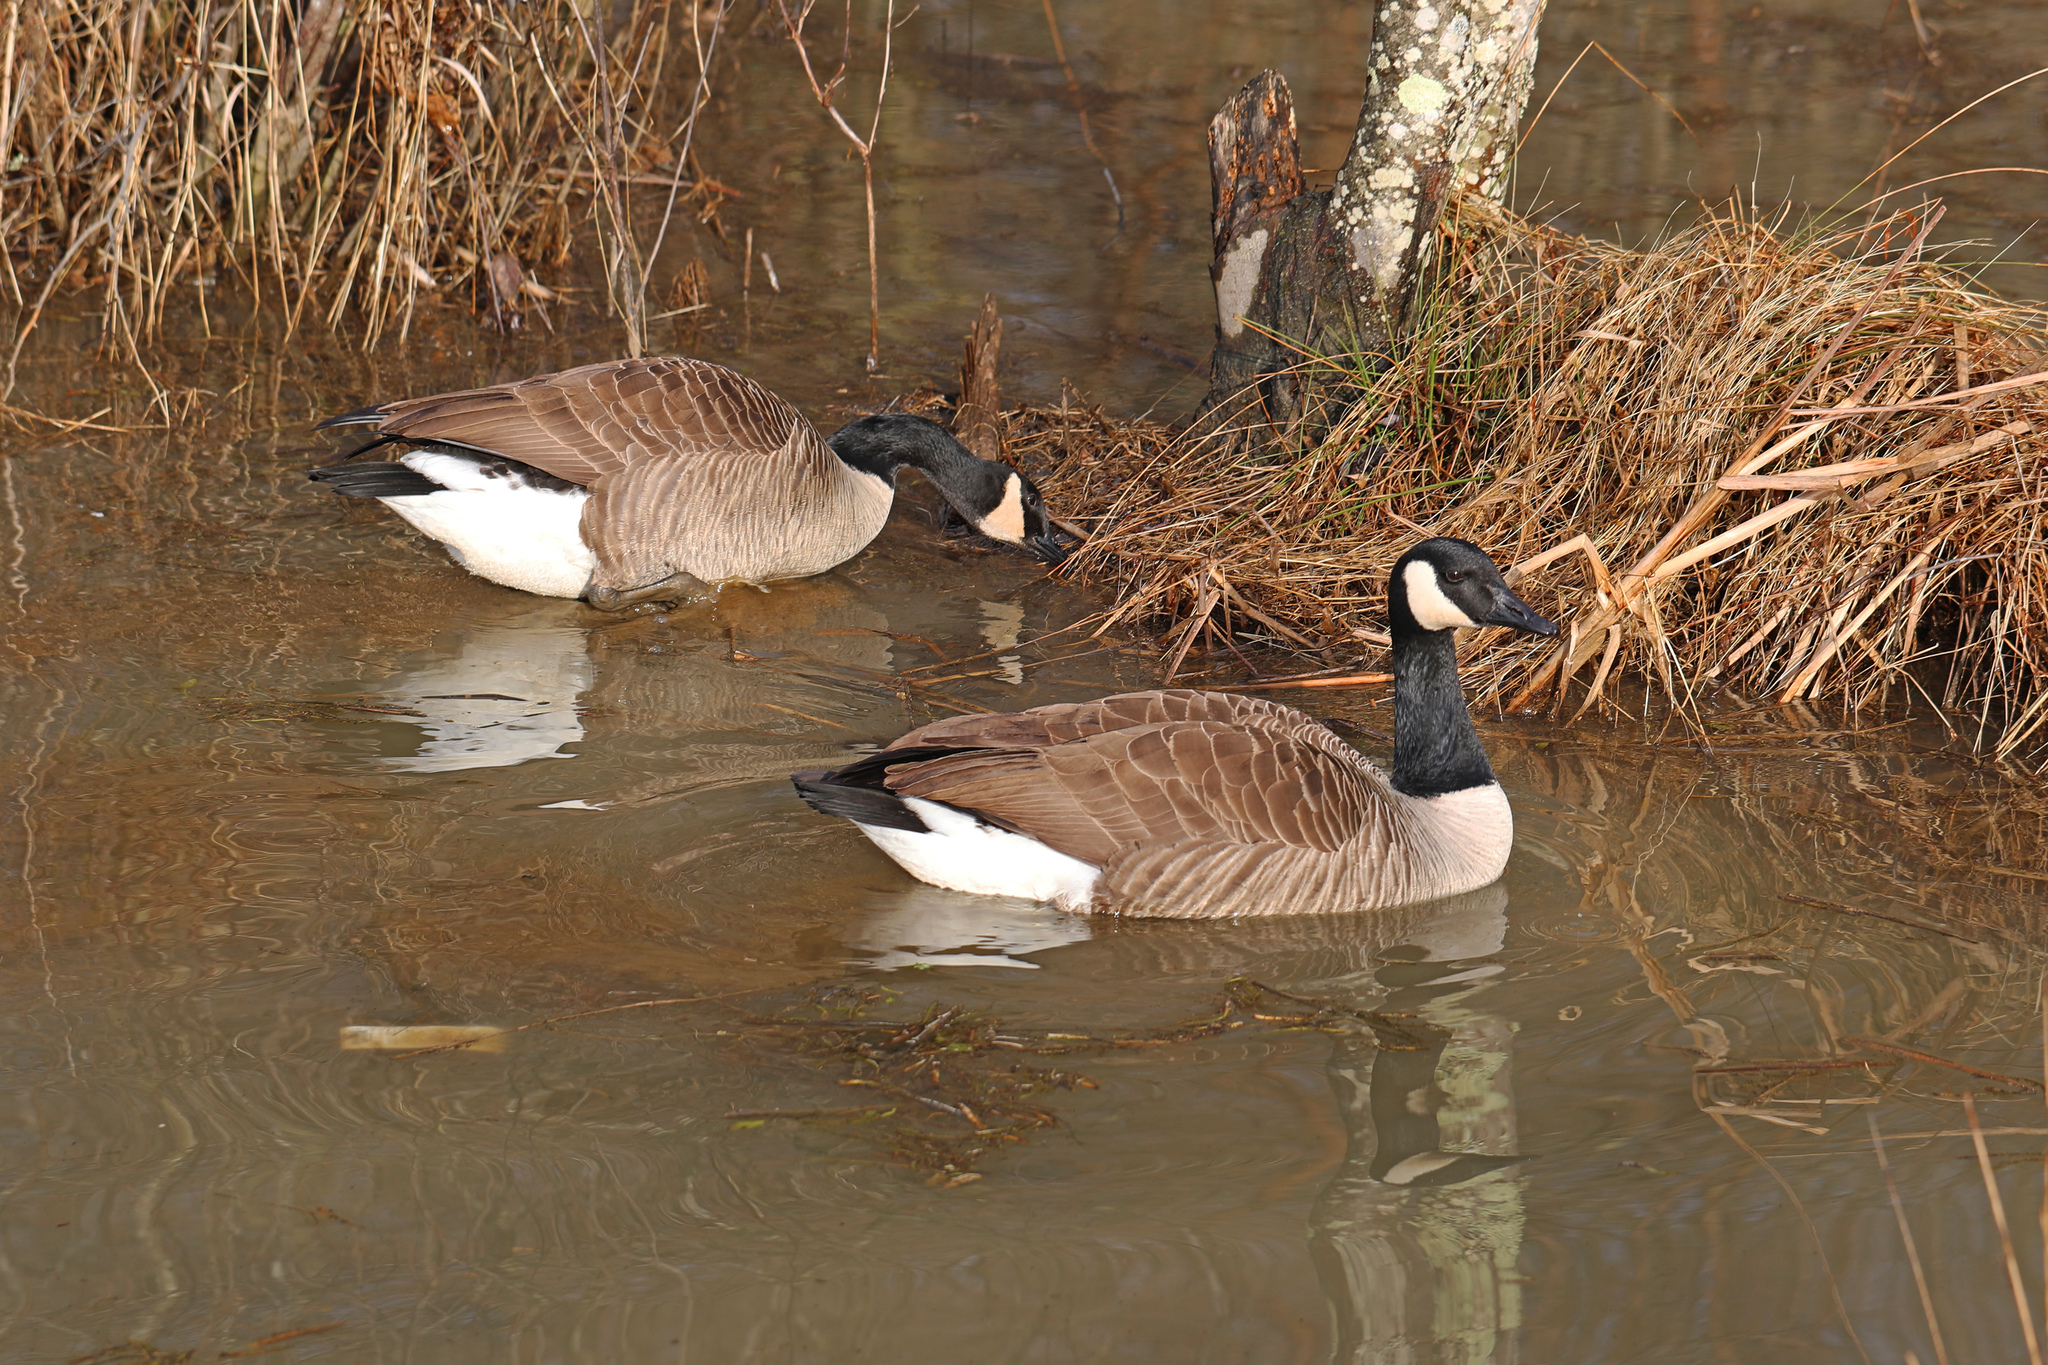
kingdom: Animalia
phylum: Chordata
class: Aves
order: Anseriformes
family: Anatidae
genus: Branta
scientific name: Branta canadensis
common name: Canada goose
